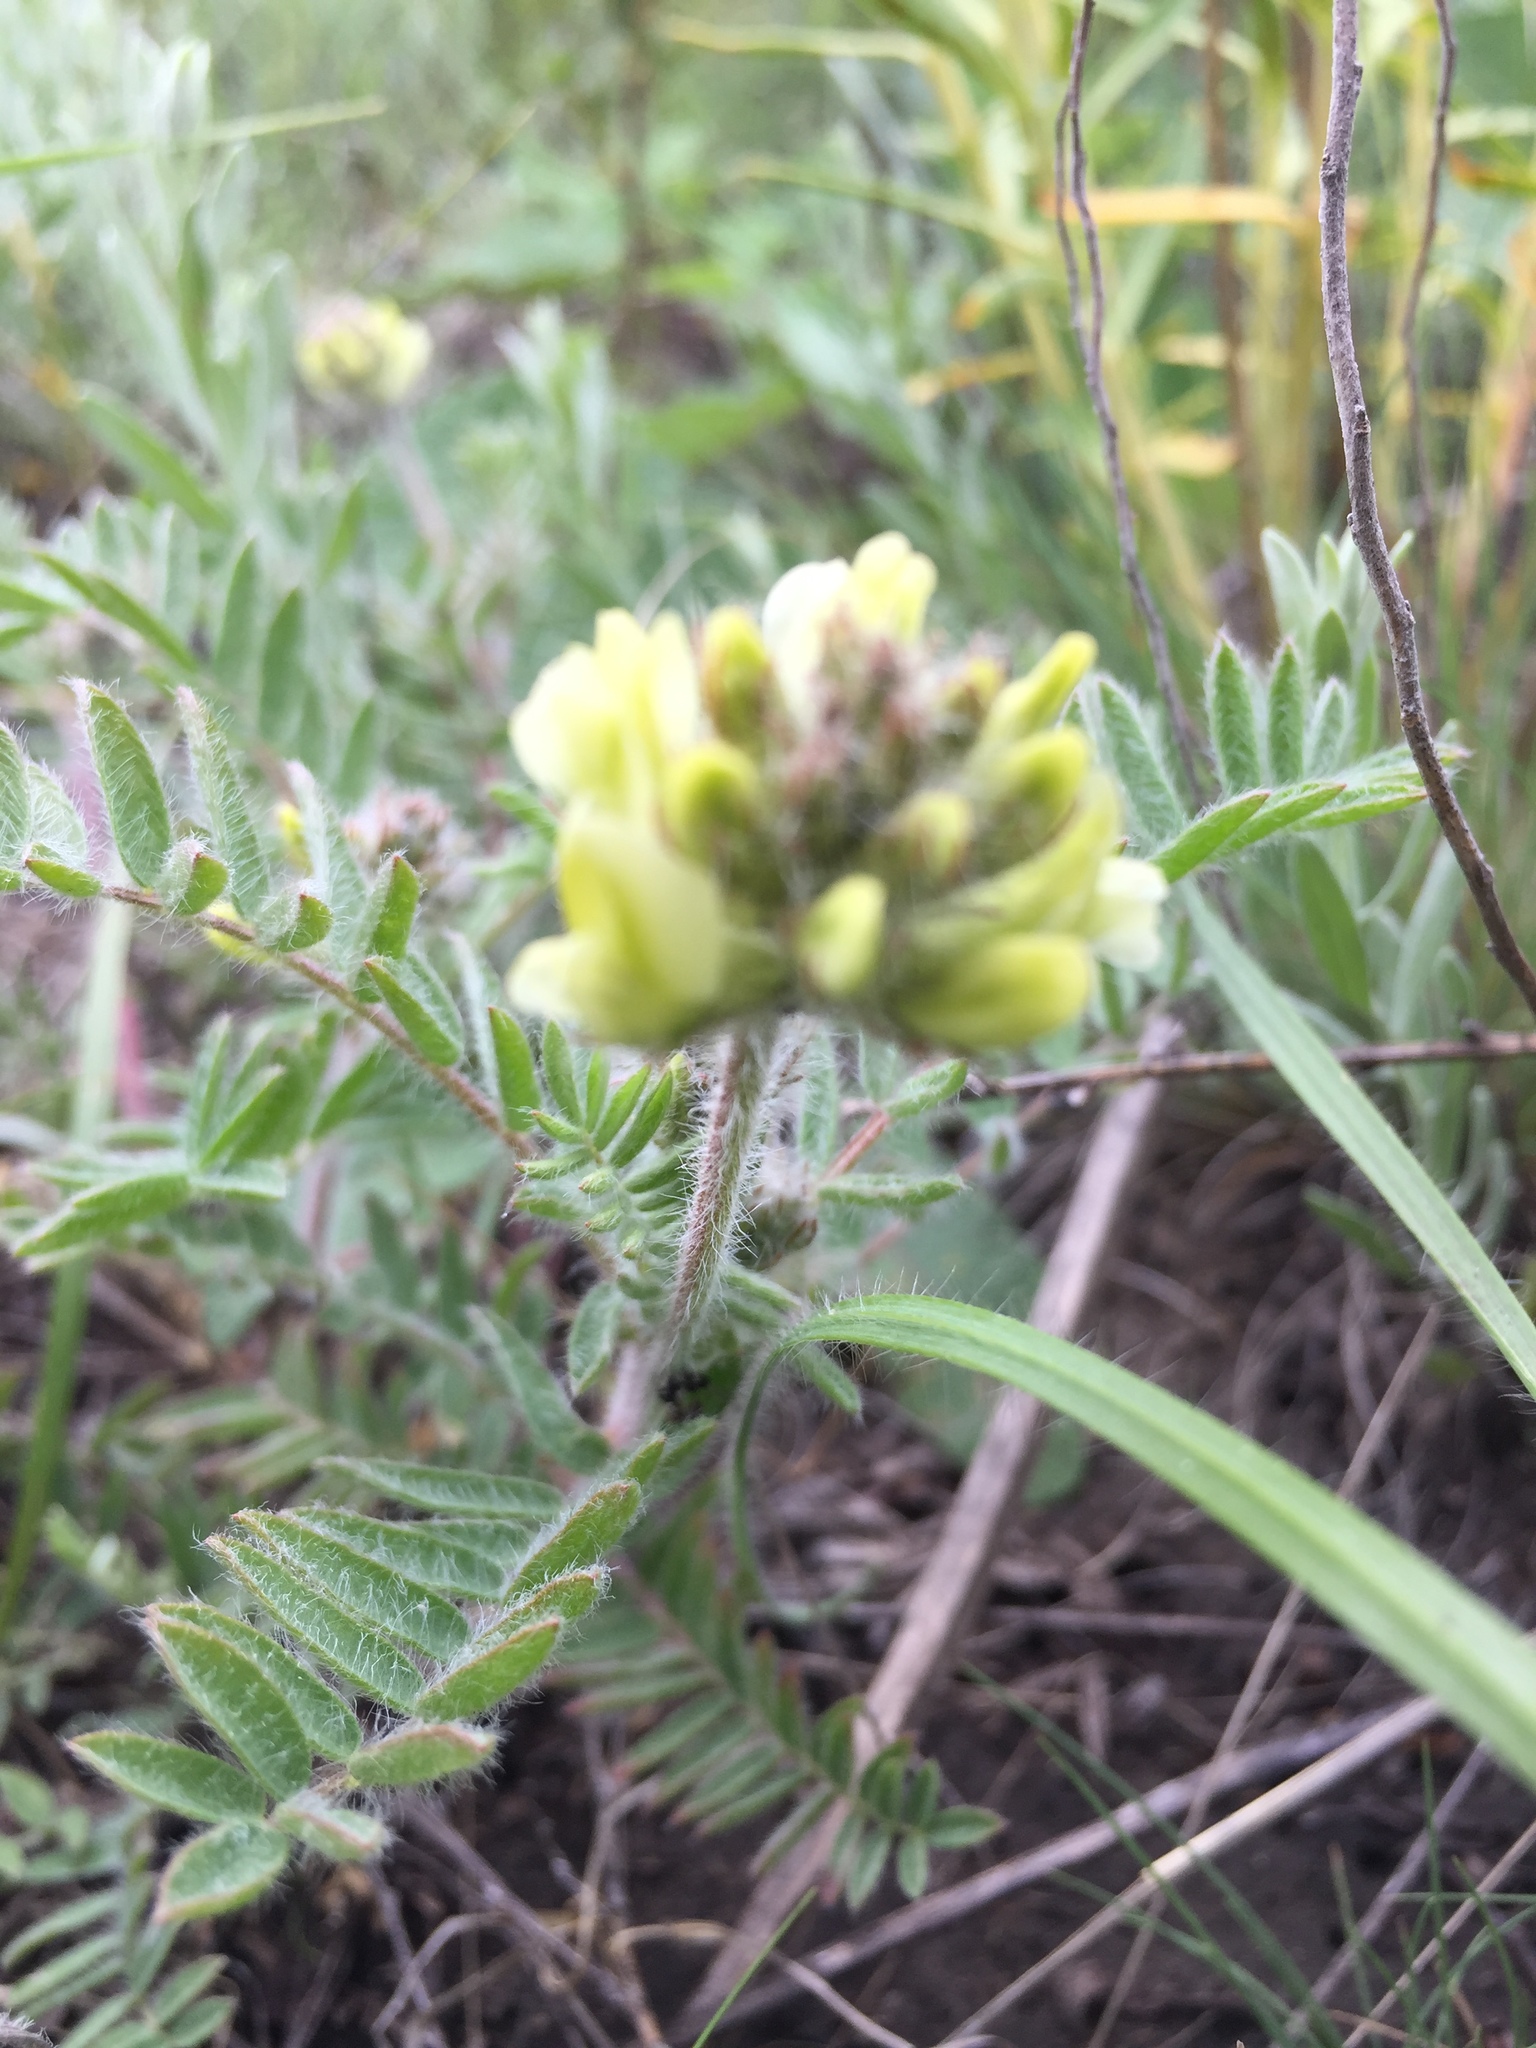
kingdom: Plantae
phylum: Tracheophyta
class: Magnoliopsida
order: Fabales
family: Fabaceae
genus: Oxytropis
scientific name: Oxytropis pilosa
